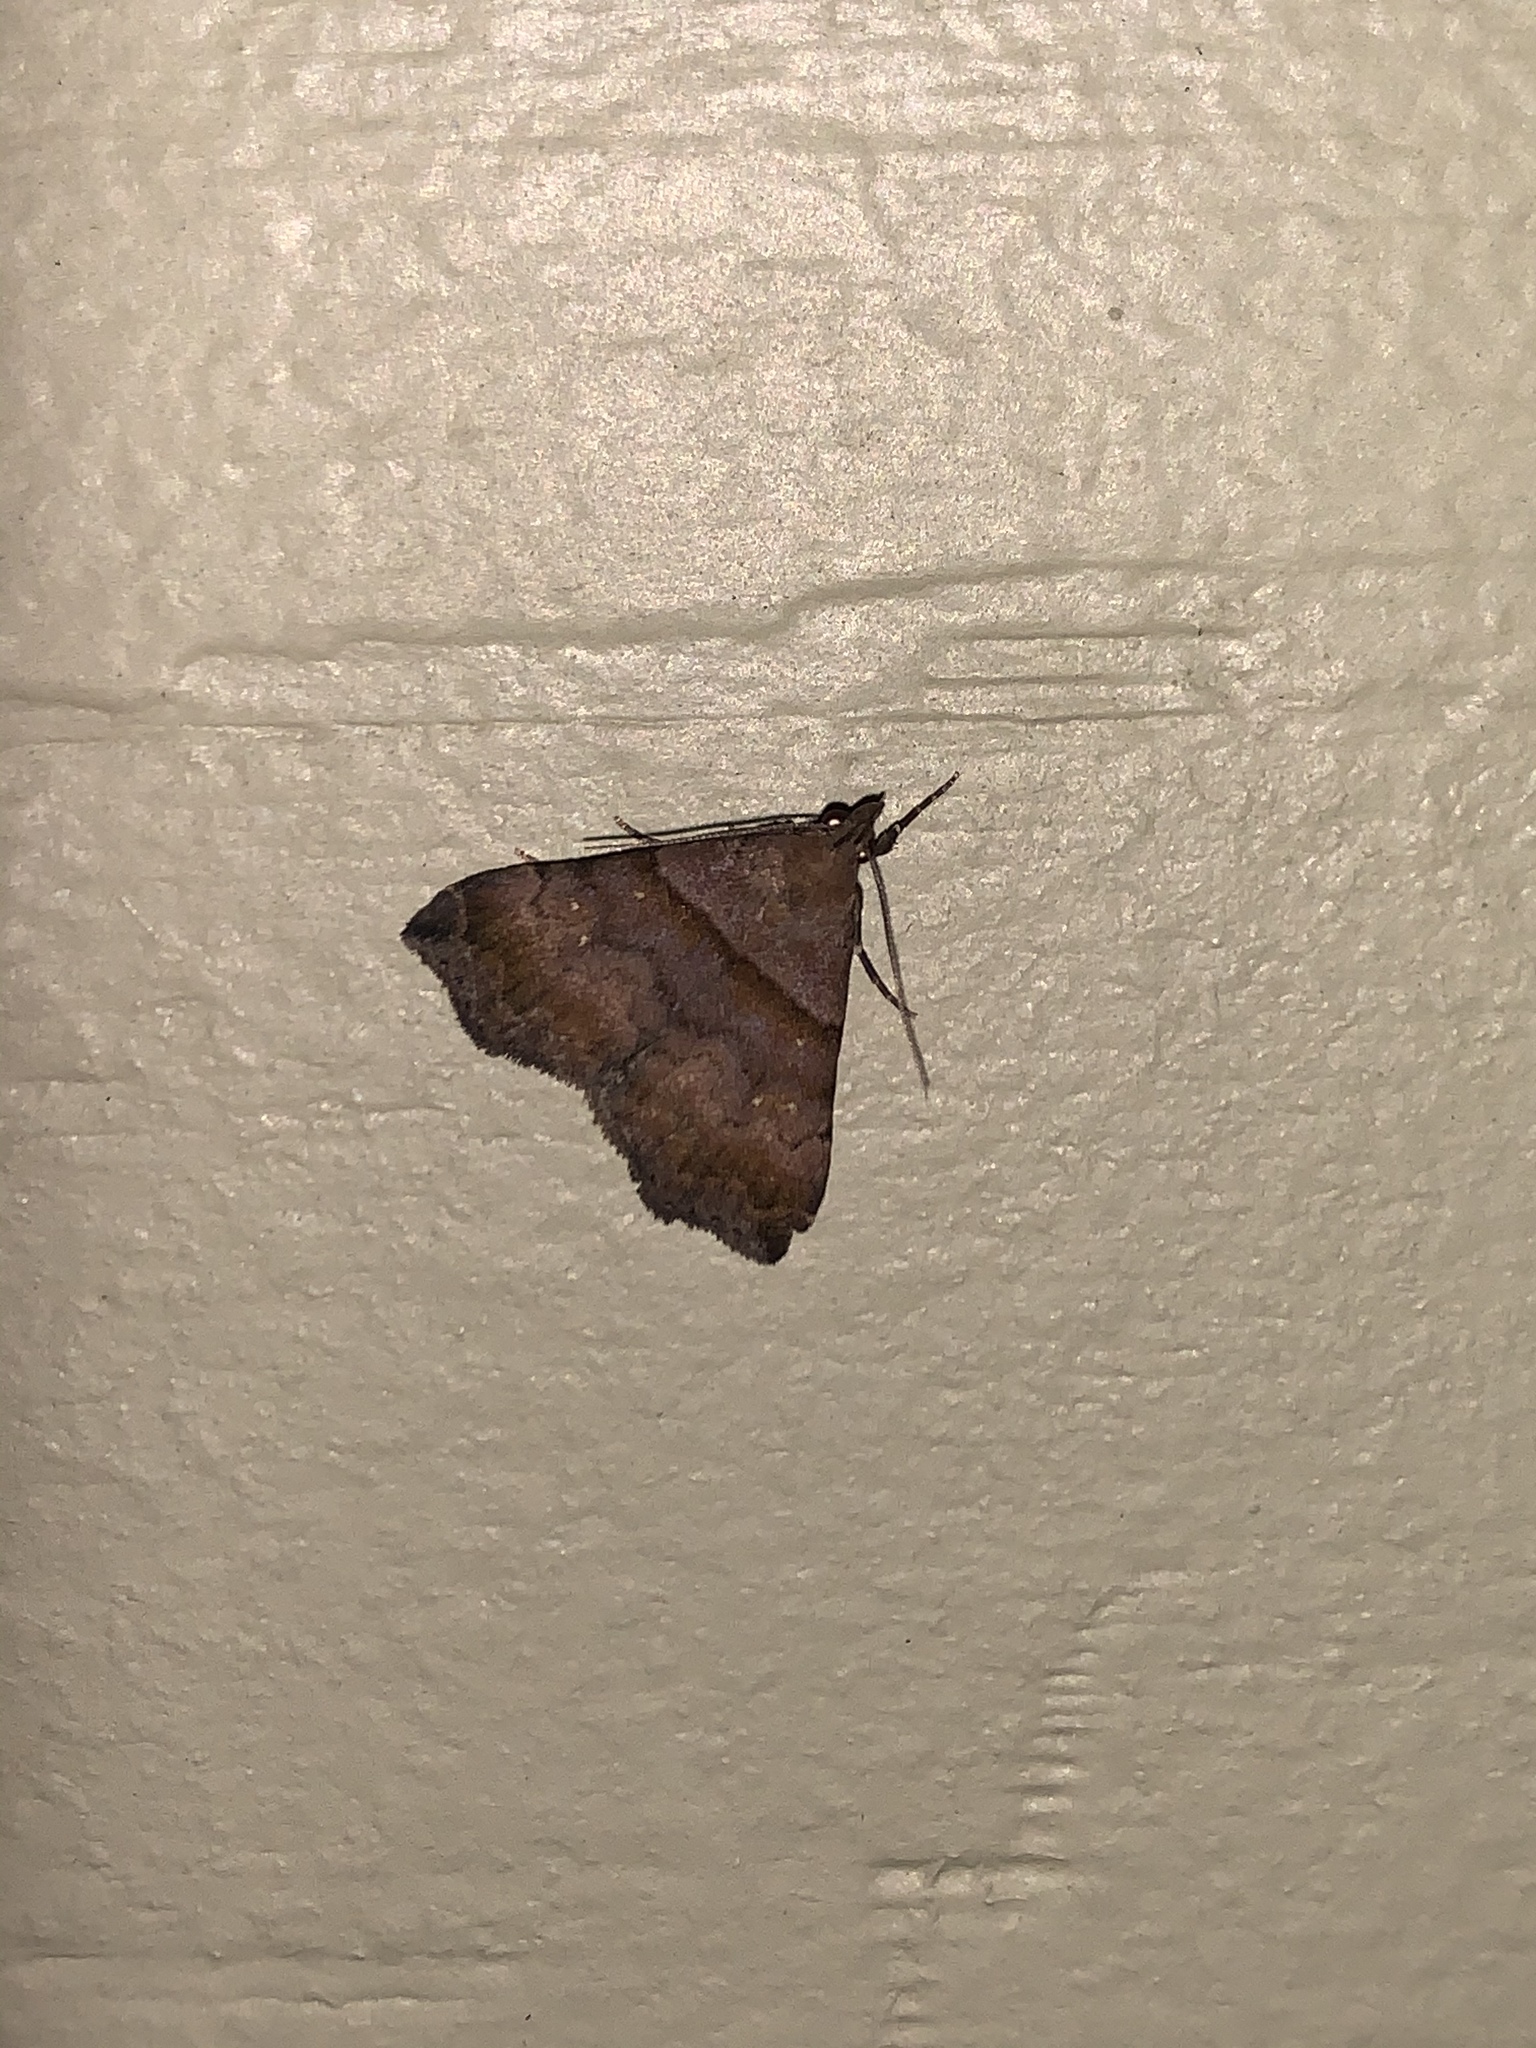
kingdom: Animalia
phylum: Arthropoda
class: Insecta
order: Lepidoptera
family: Erebidae
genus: Lascoria
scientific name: Lascoria ambigualis
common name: Ambiguous moth
